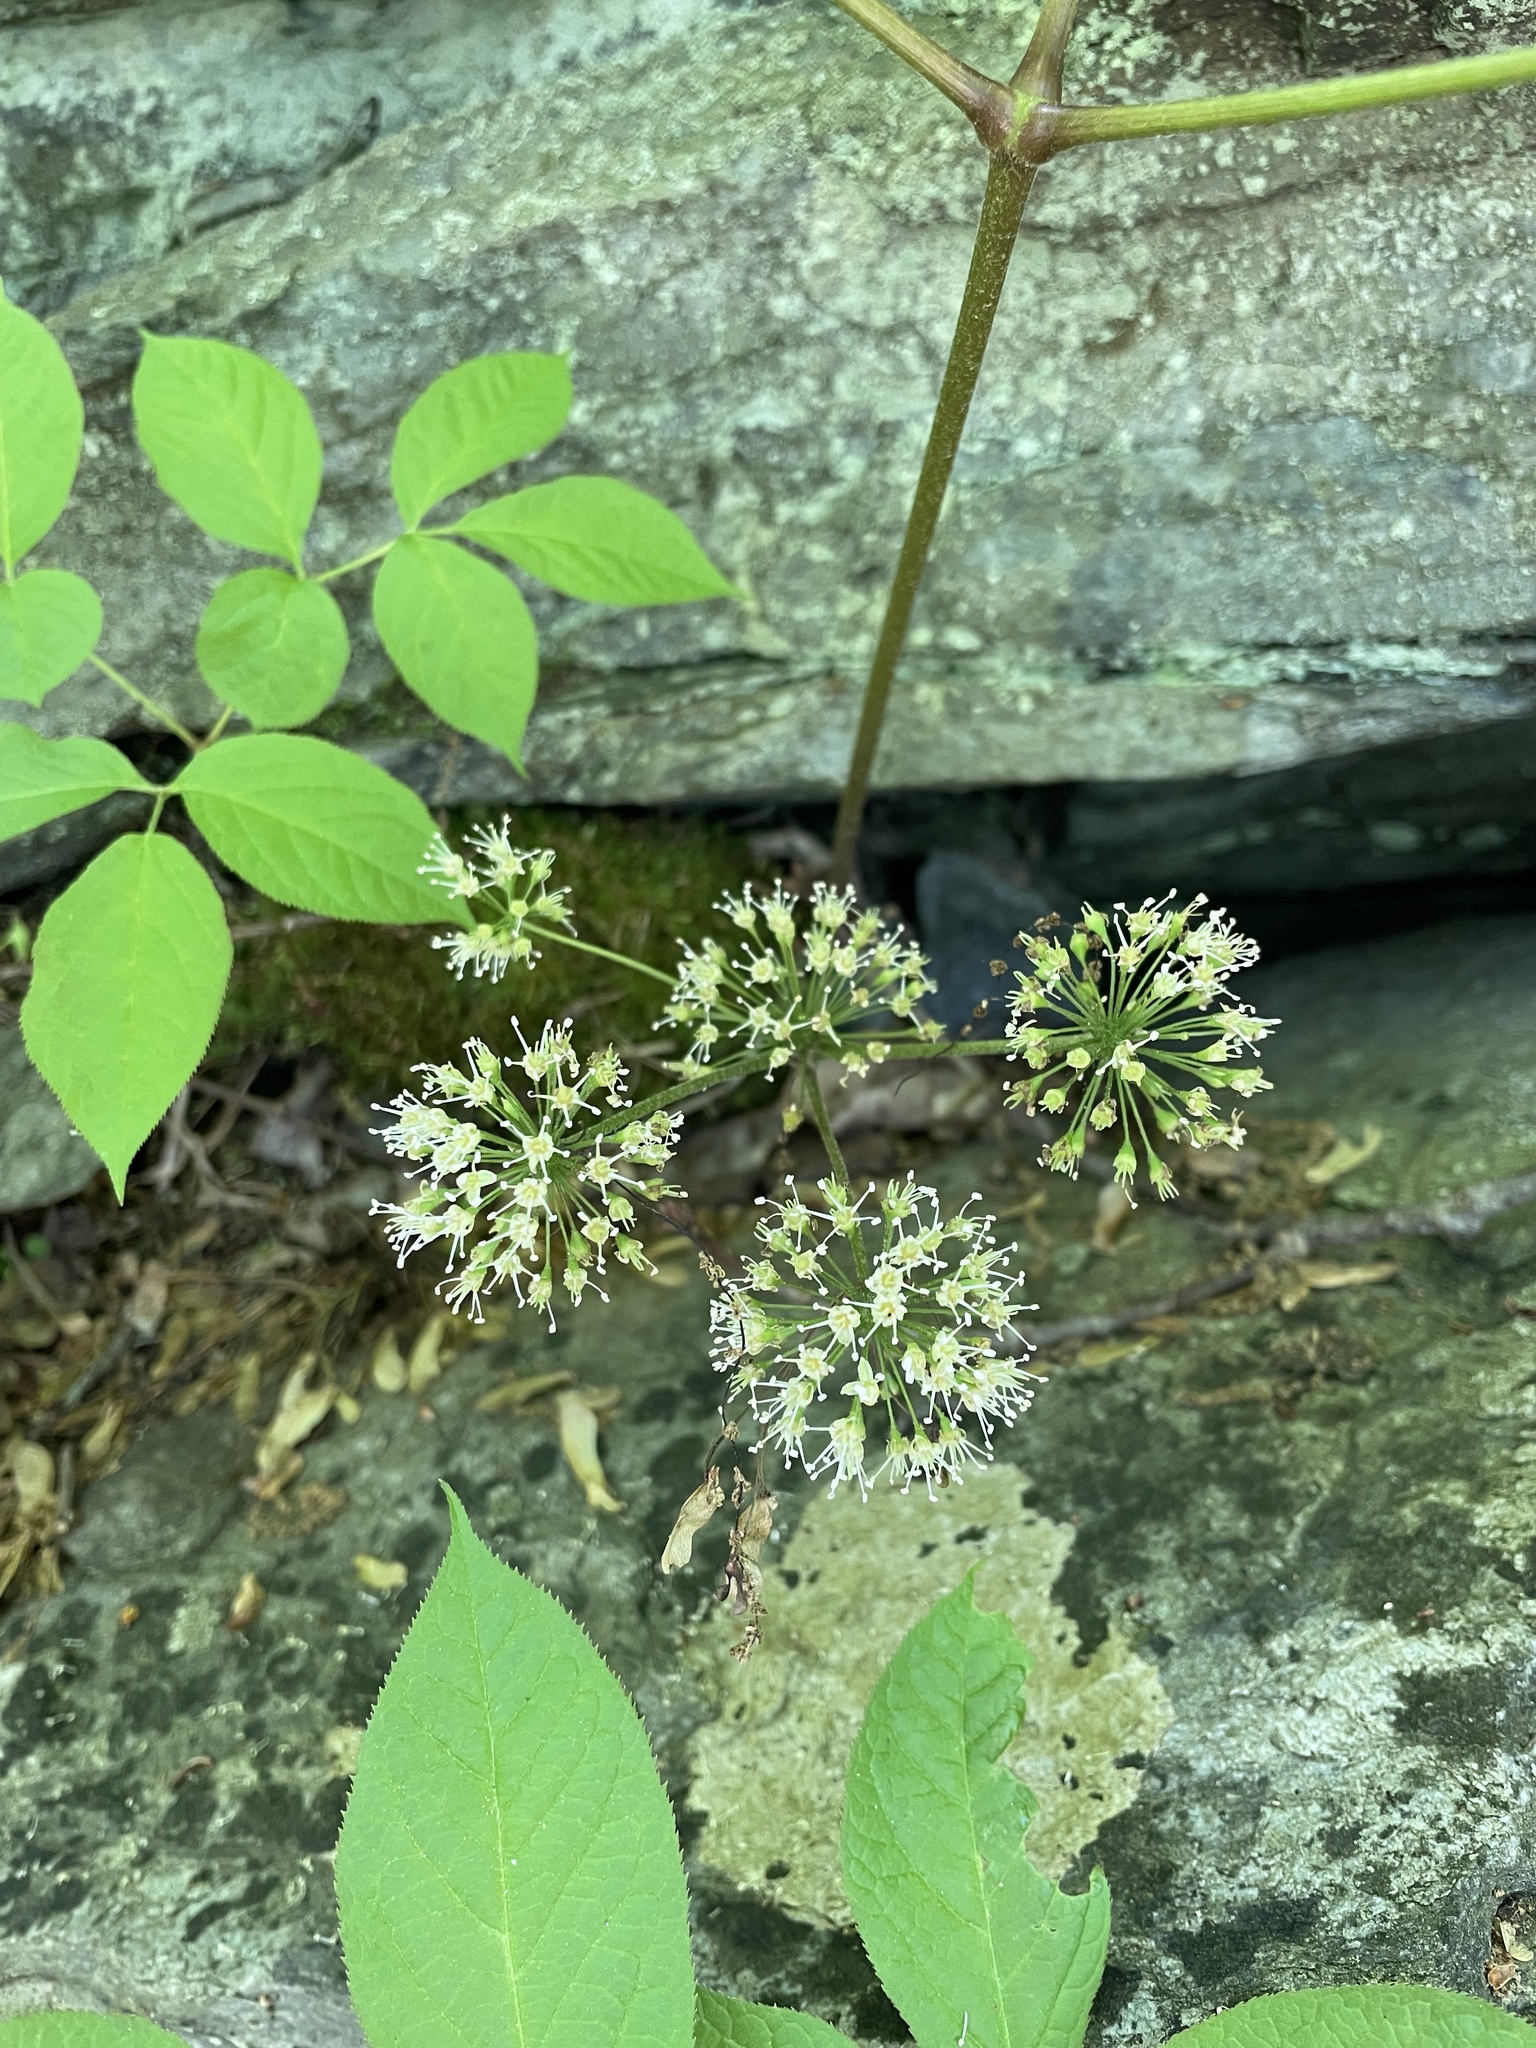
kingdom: Plantae
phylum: Tracheophyta
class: Magnoliopsida
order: Apiales
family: Araliaceae
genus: Aralia
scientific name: Aralia nudicaulis
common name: Wild sarsaparilla
